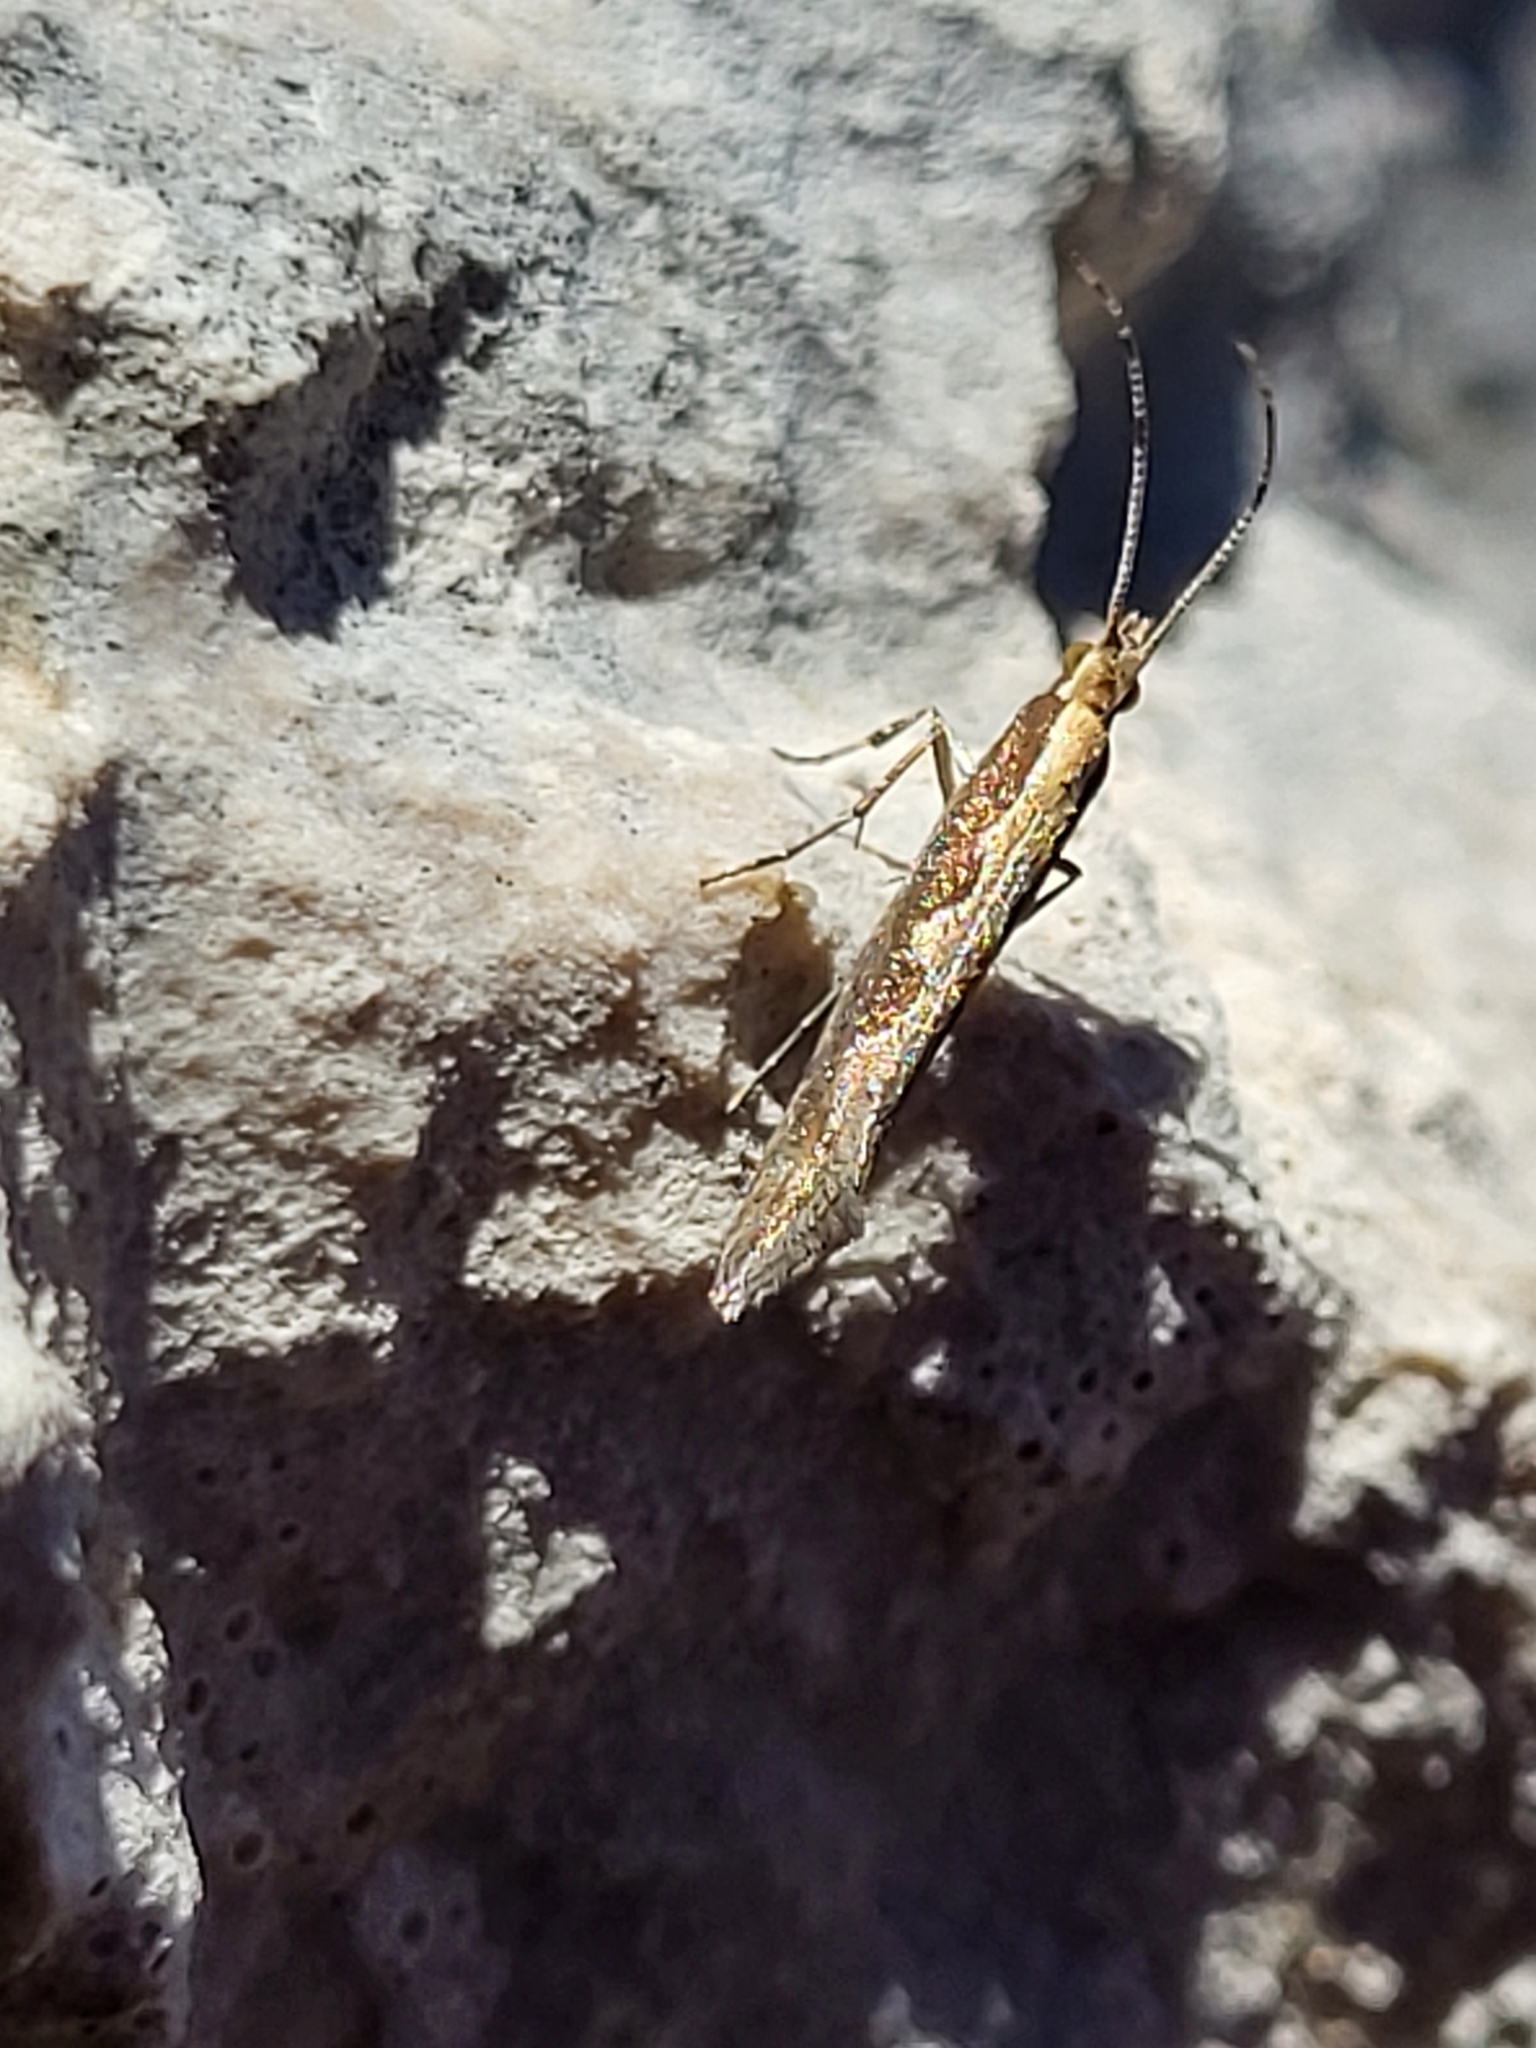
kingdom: Animalia
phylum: Arthropoda
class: Insecta
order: Lepidoptera
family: Plutellidae
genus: Plutella
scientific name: Plutella xylostella
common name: Diamond-back moth
